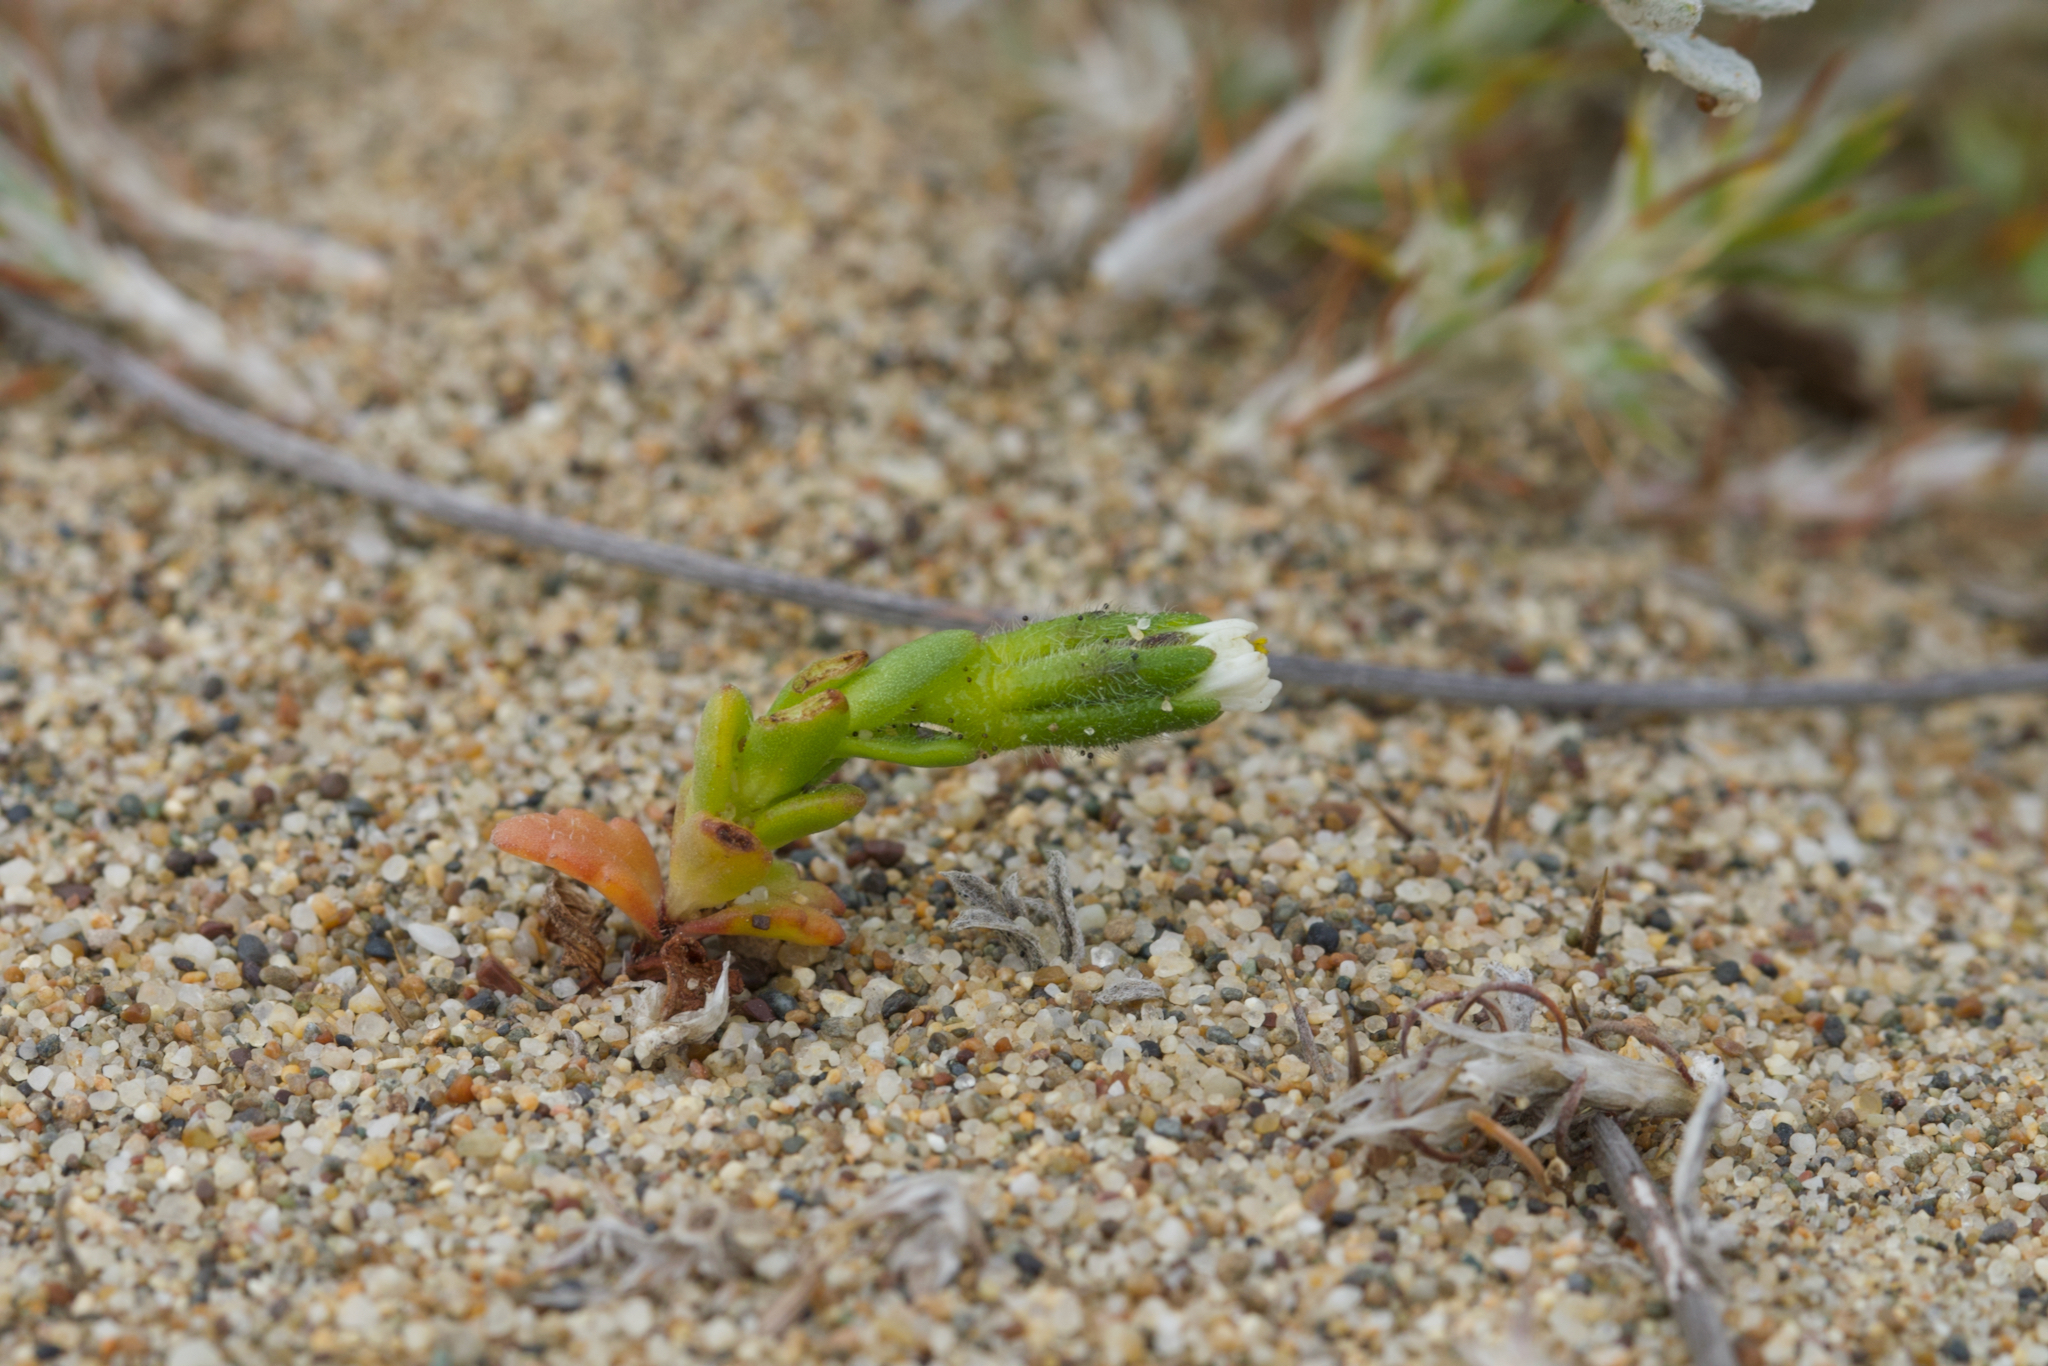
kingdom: Plantae
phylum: Tracheophyta
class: Magnoliopsida
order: Asterales
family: Asteraceae
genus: Layia
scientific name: Layia carnosa
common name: Beach layia
